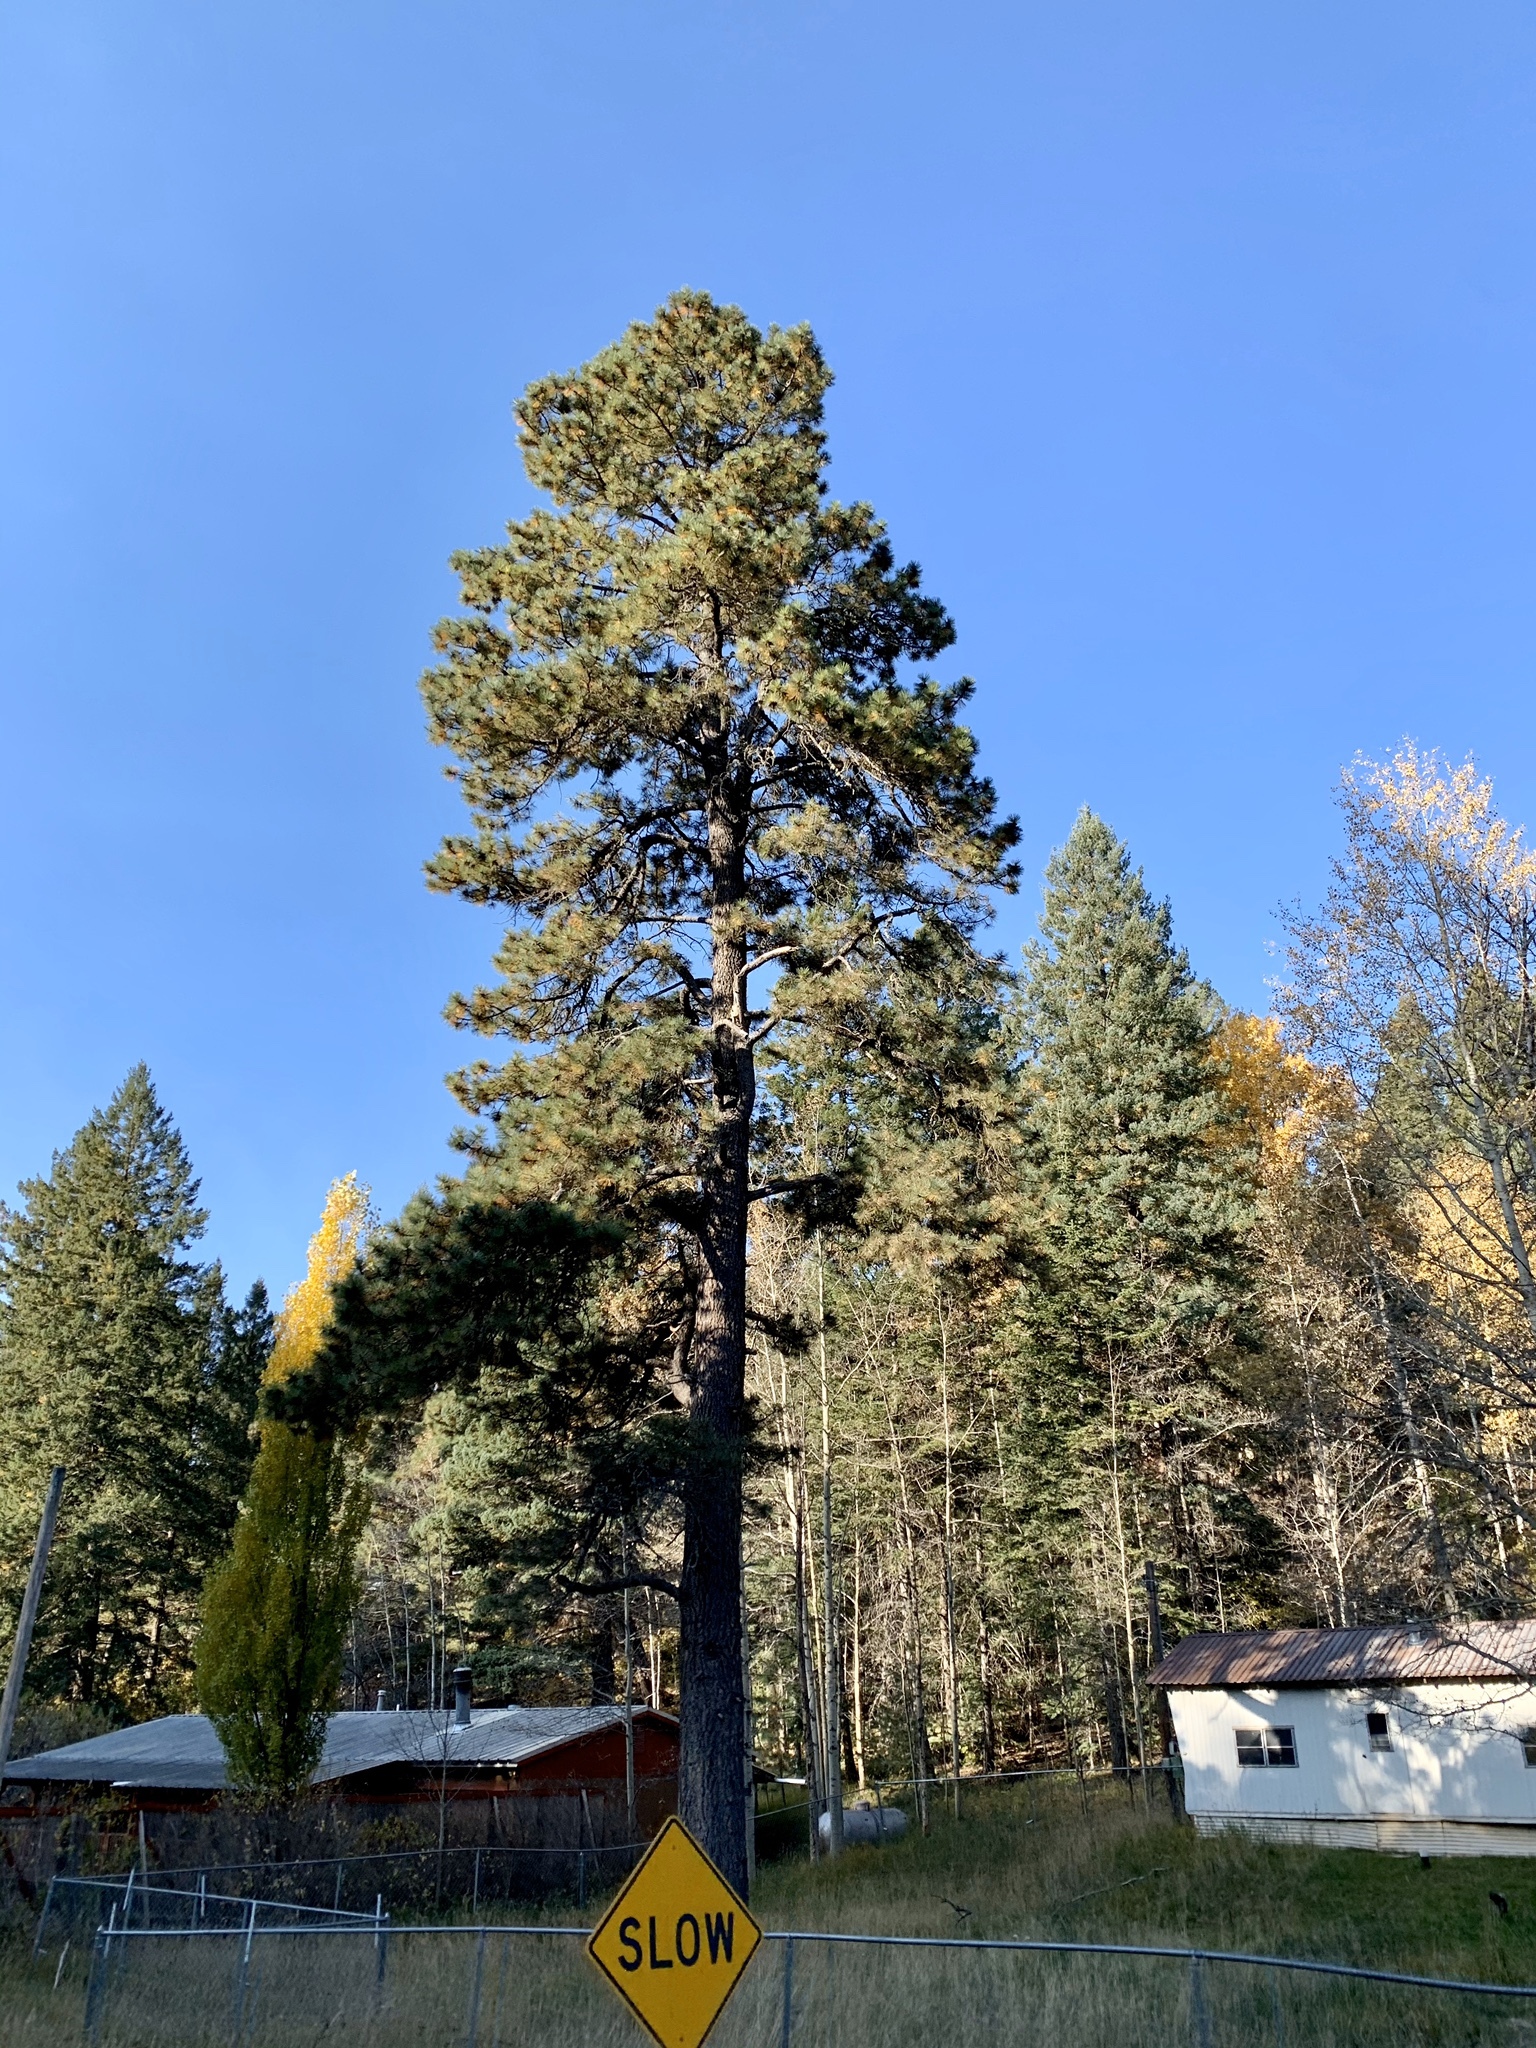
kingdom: Plantae
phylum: Tracheophyta
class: Pinopsida
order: Pinales
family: Pinaceae
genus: Pinus
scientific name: Pinus ponderosa
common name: Western yellow-pine
